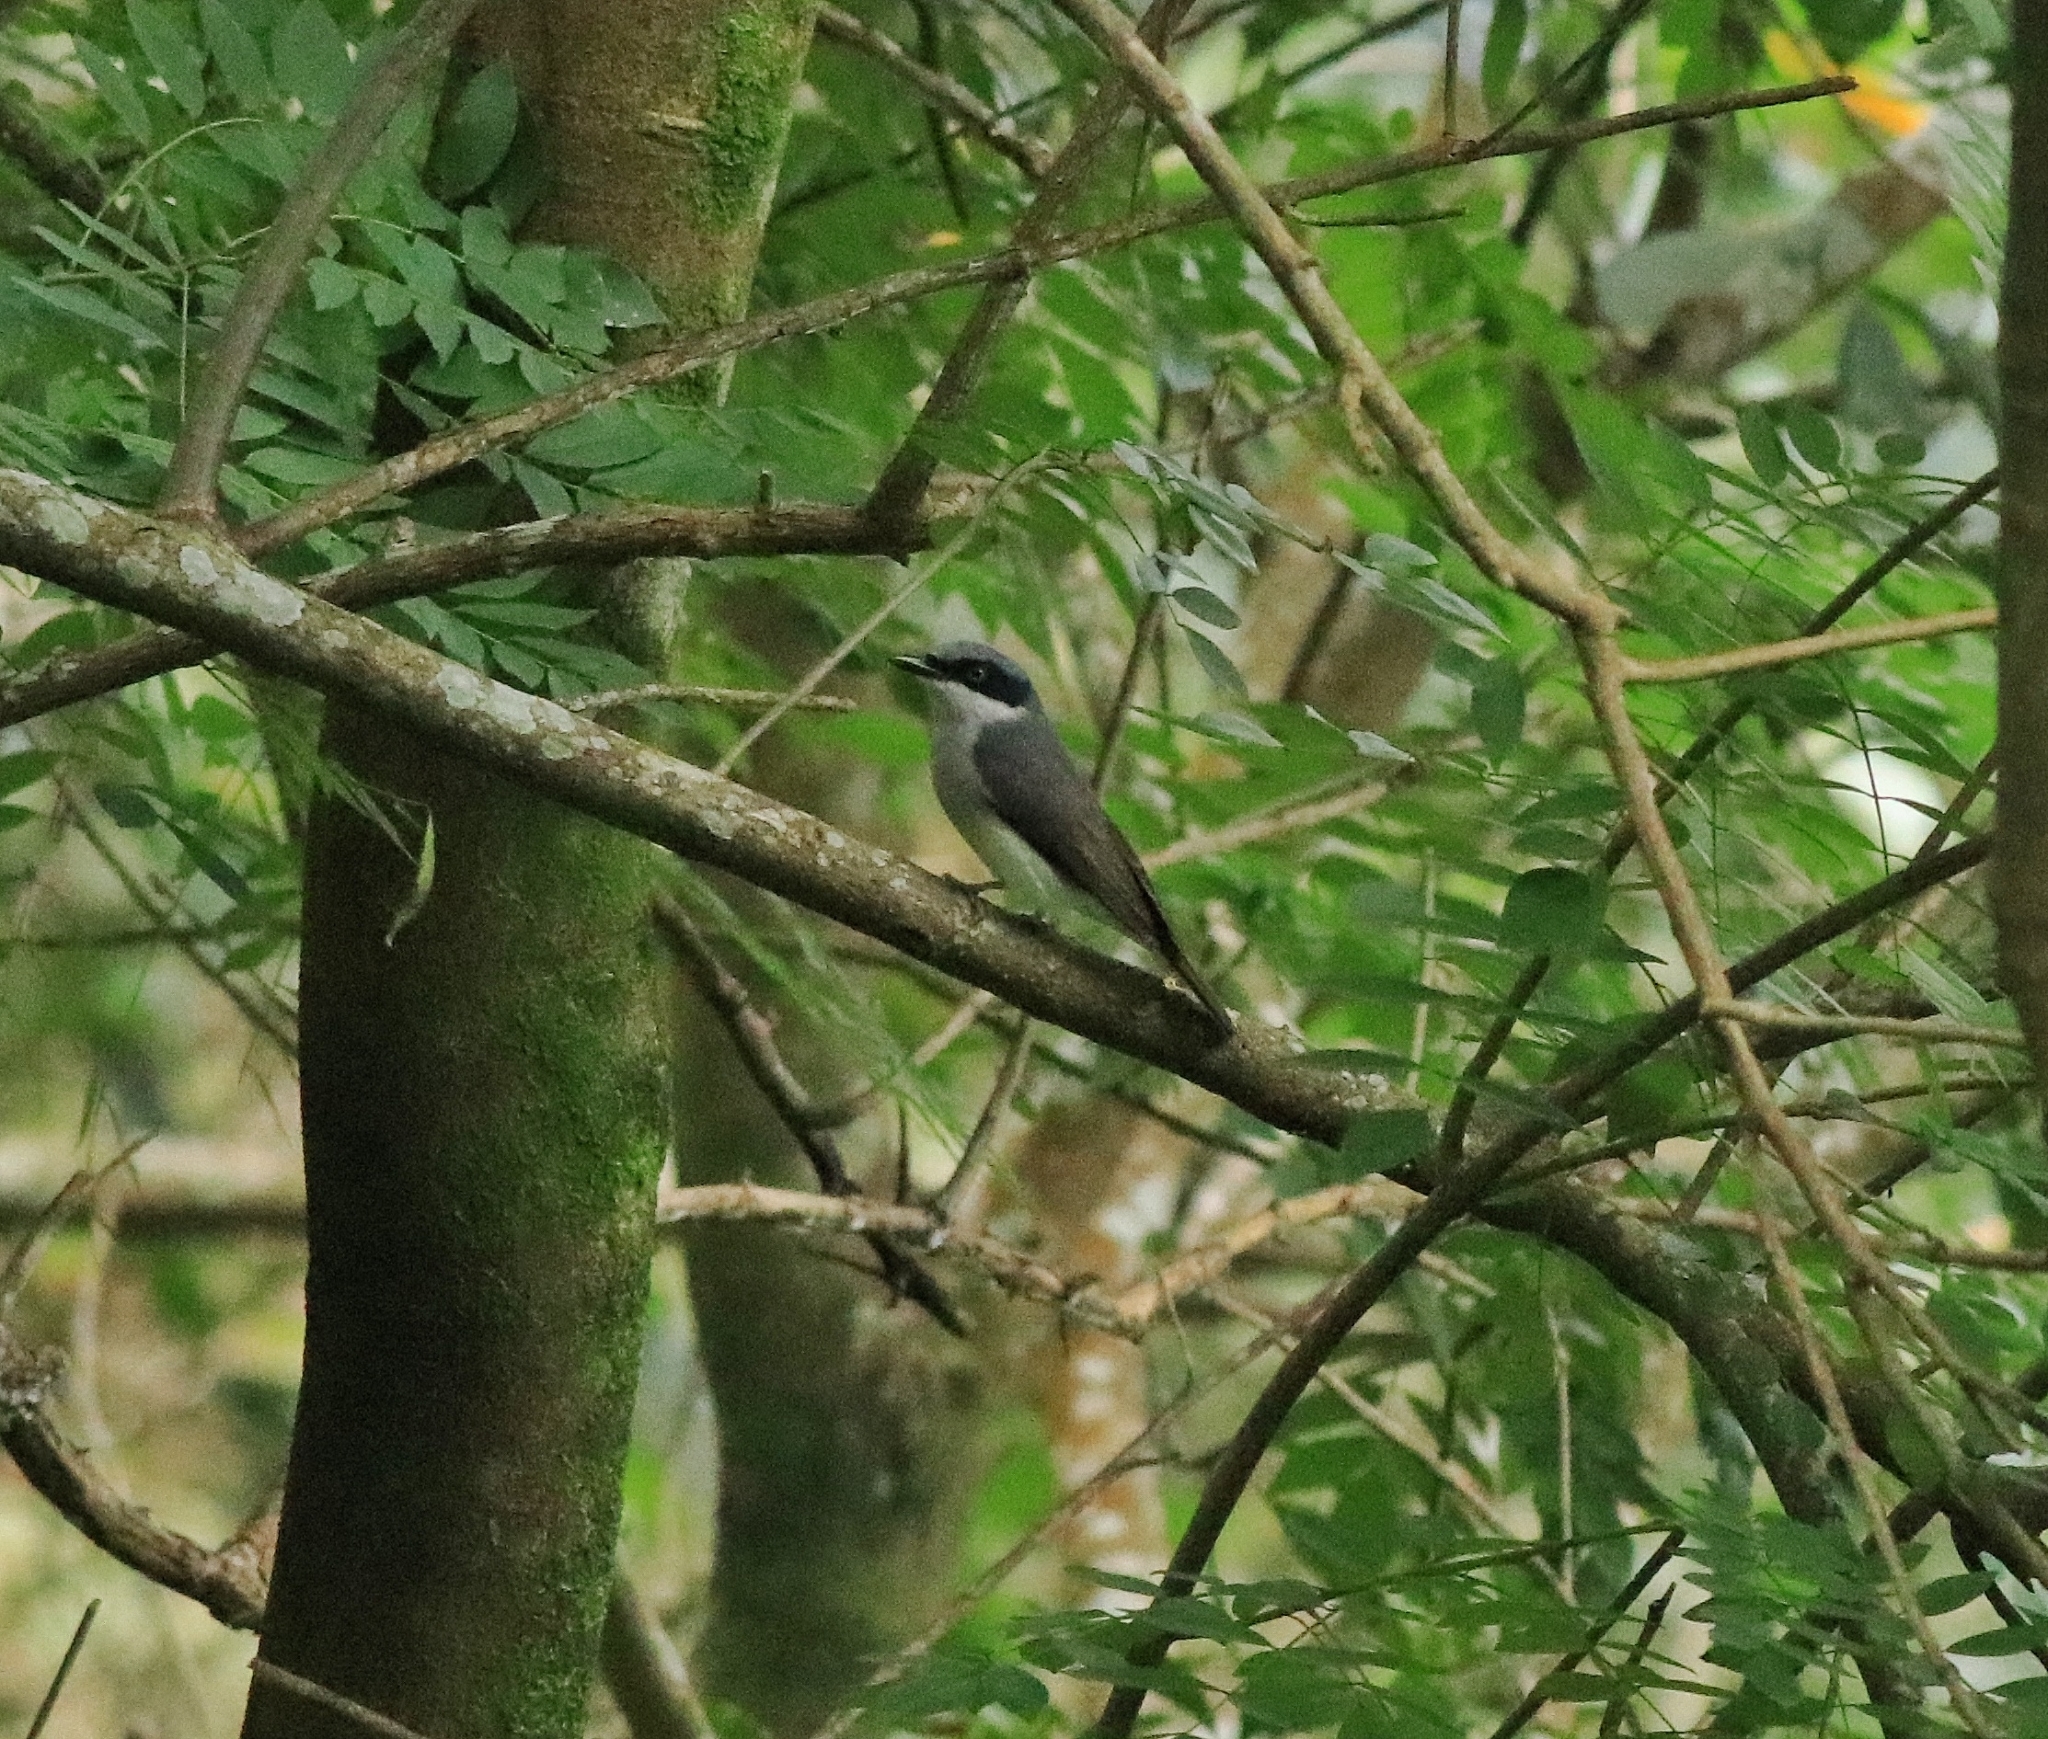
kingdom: Animalia
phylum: Chordata
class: Aves
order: Passeriformes
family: Tephrodornithidae
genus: Tephrodornis
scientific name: Tephrodornis sylvicola
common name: Malabar woodshrike
